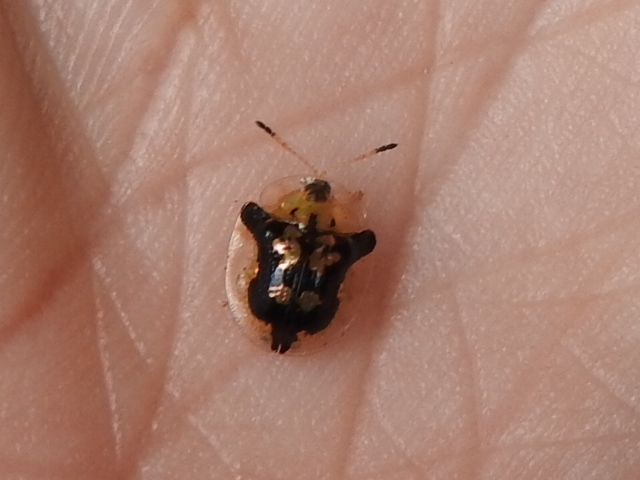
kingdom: Animalia
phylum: Arthropoda
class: Insecta
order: Coleoptera
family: Chrysomelidae
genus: Deloyala
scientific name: Deloyala guttata
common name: Mottled tortoise beetle
